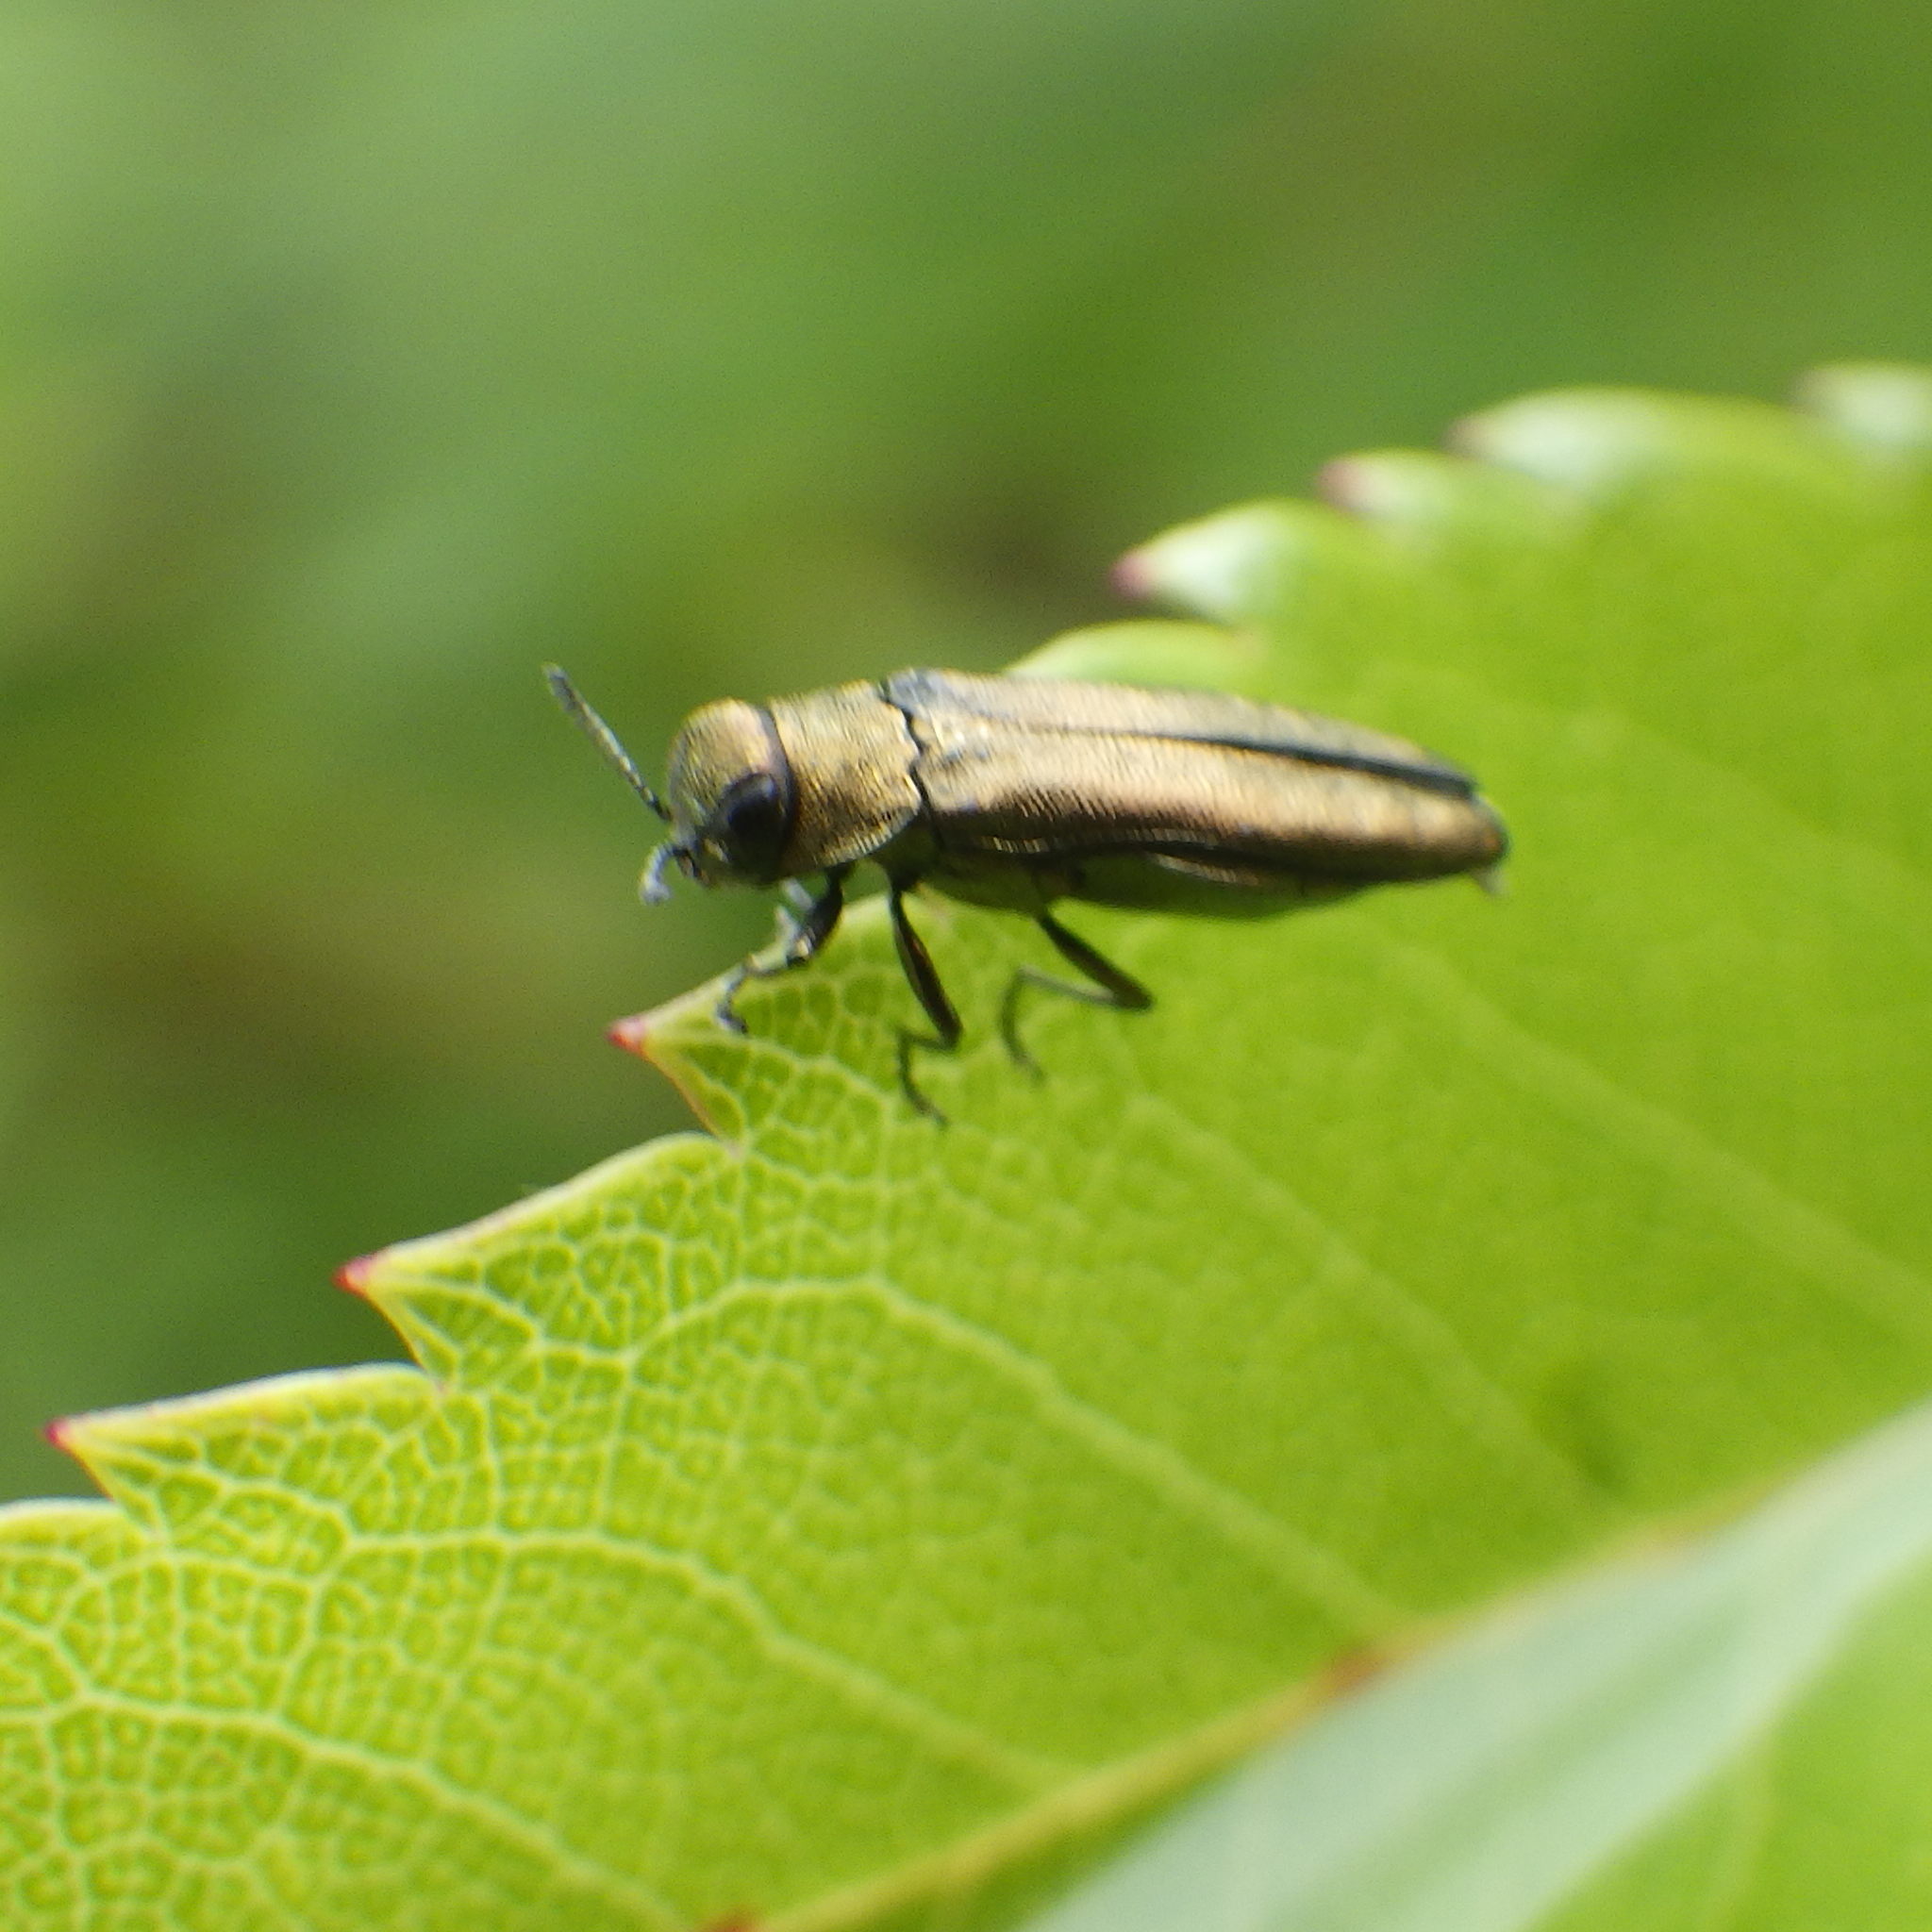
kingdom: Animalia
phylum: Arthropoda
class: Insecta
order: Coleoptera
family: Buprestidae
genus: Agrilus
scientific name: Agrilus cuprescens
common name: Rose stem girdler
